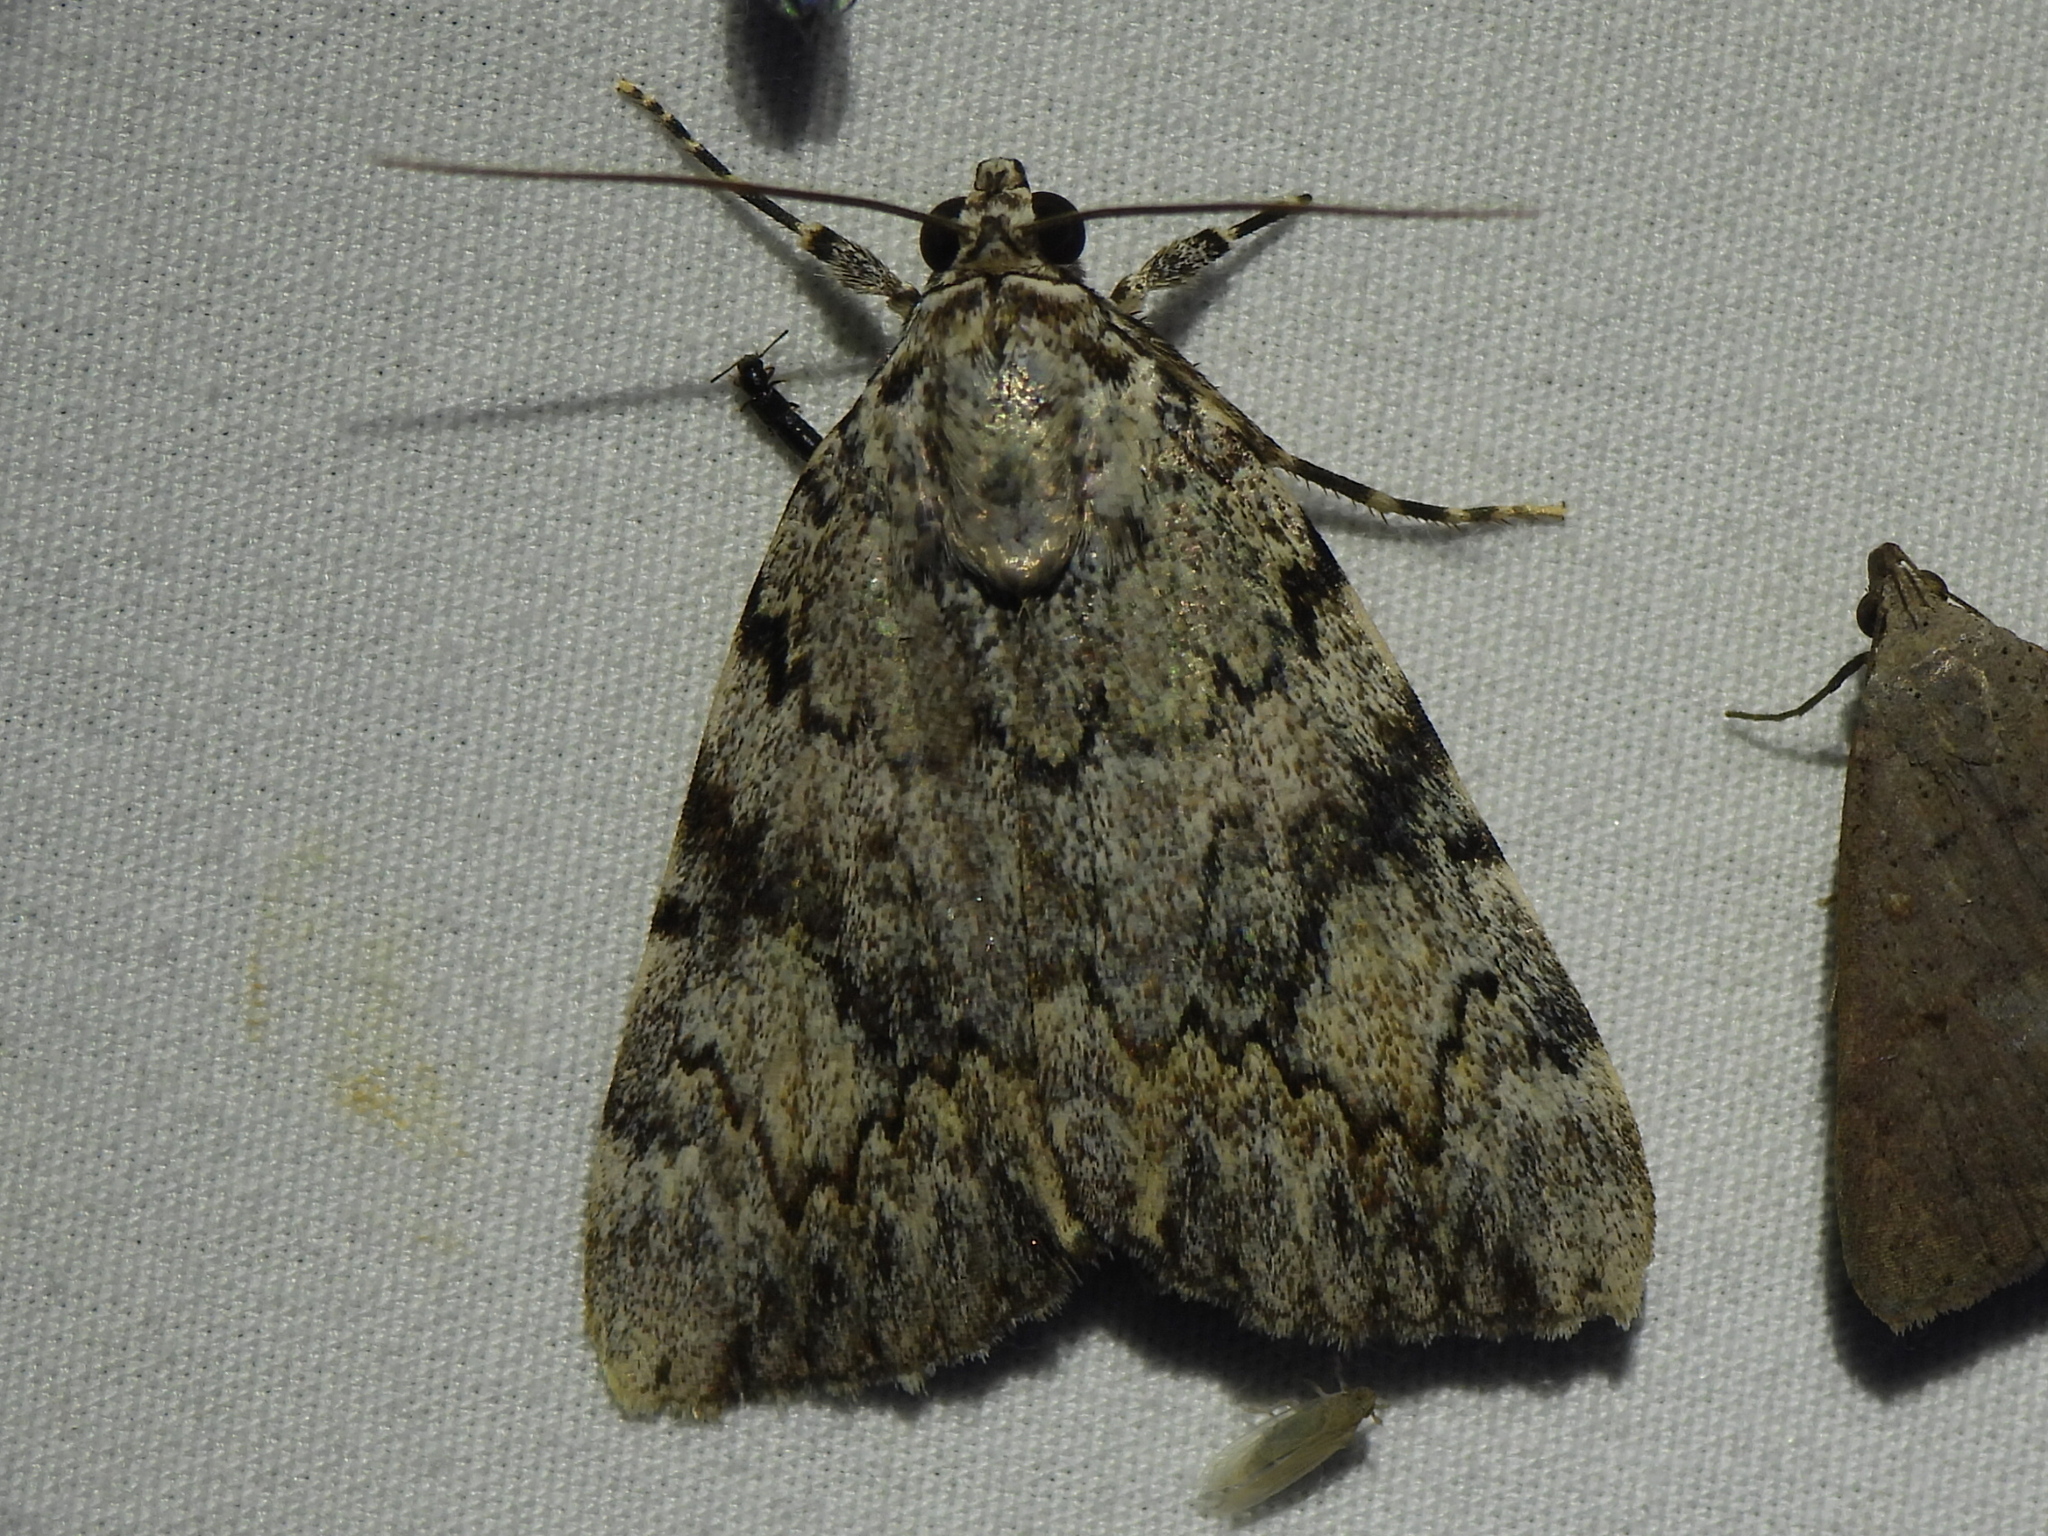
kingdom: Animalia
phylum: Arthropoda
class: Insecta
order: Lepidoptera
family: Erebidae
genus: Catocala
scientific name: Catocala amica
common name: Girlfriend underwing
